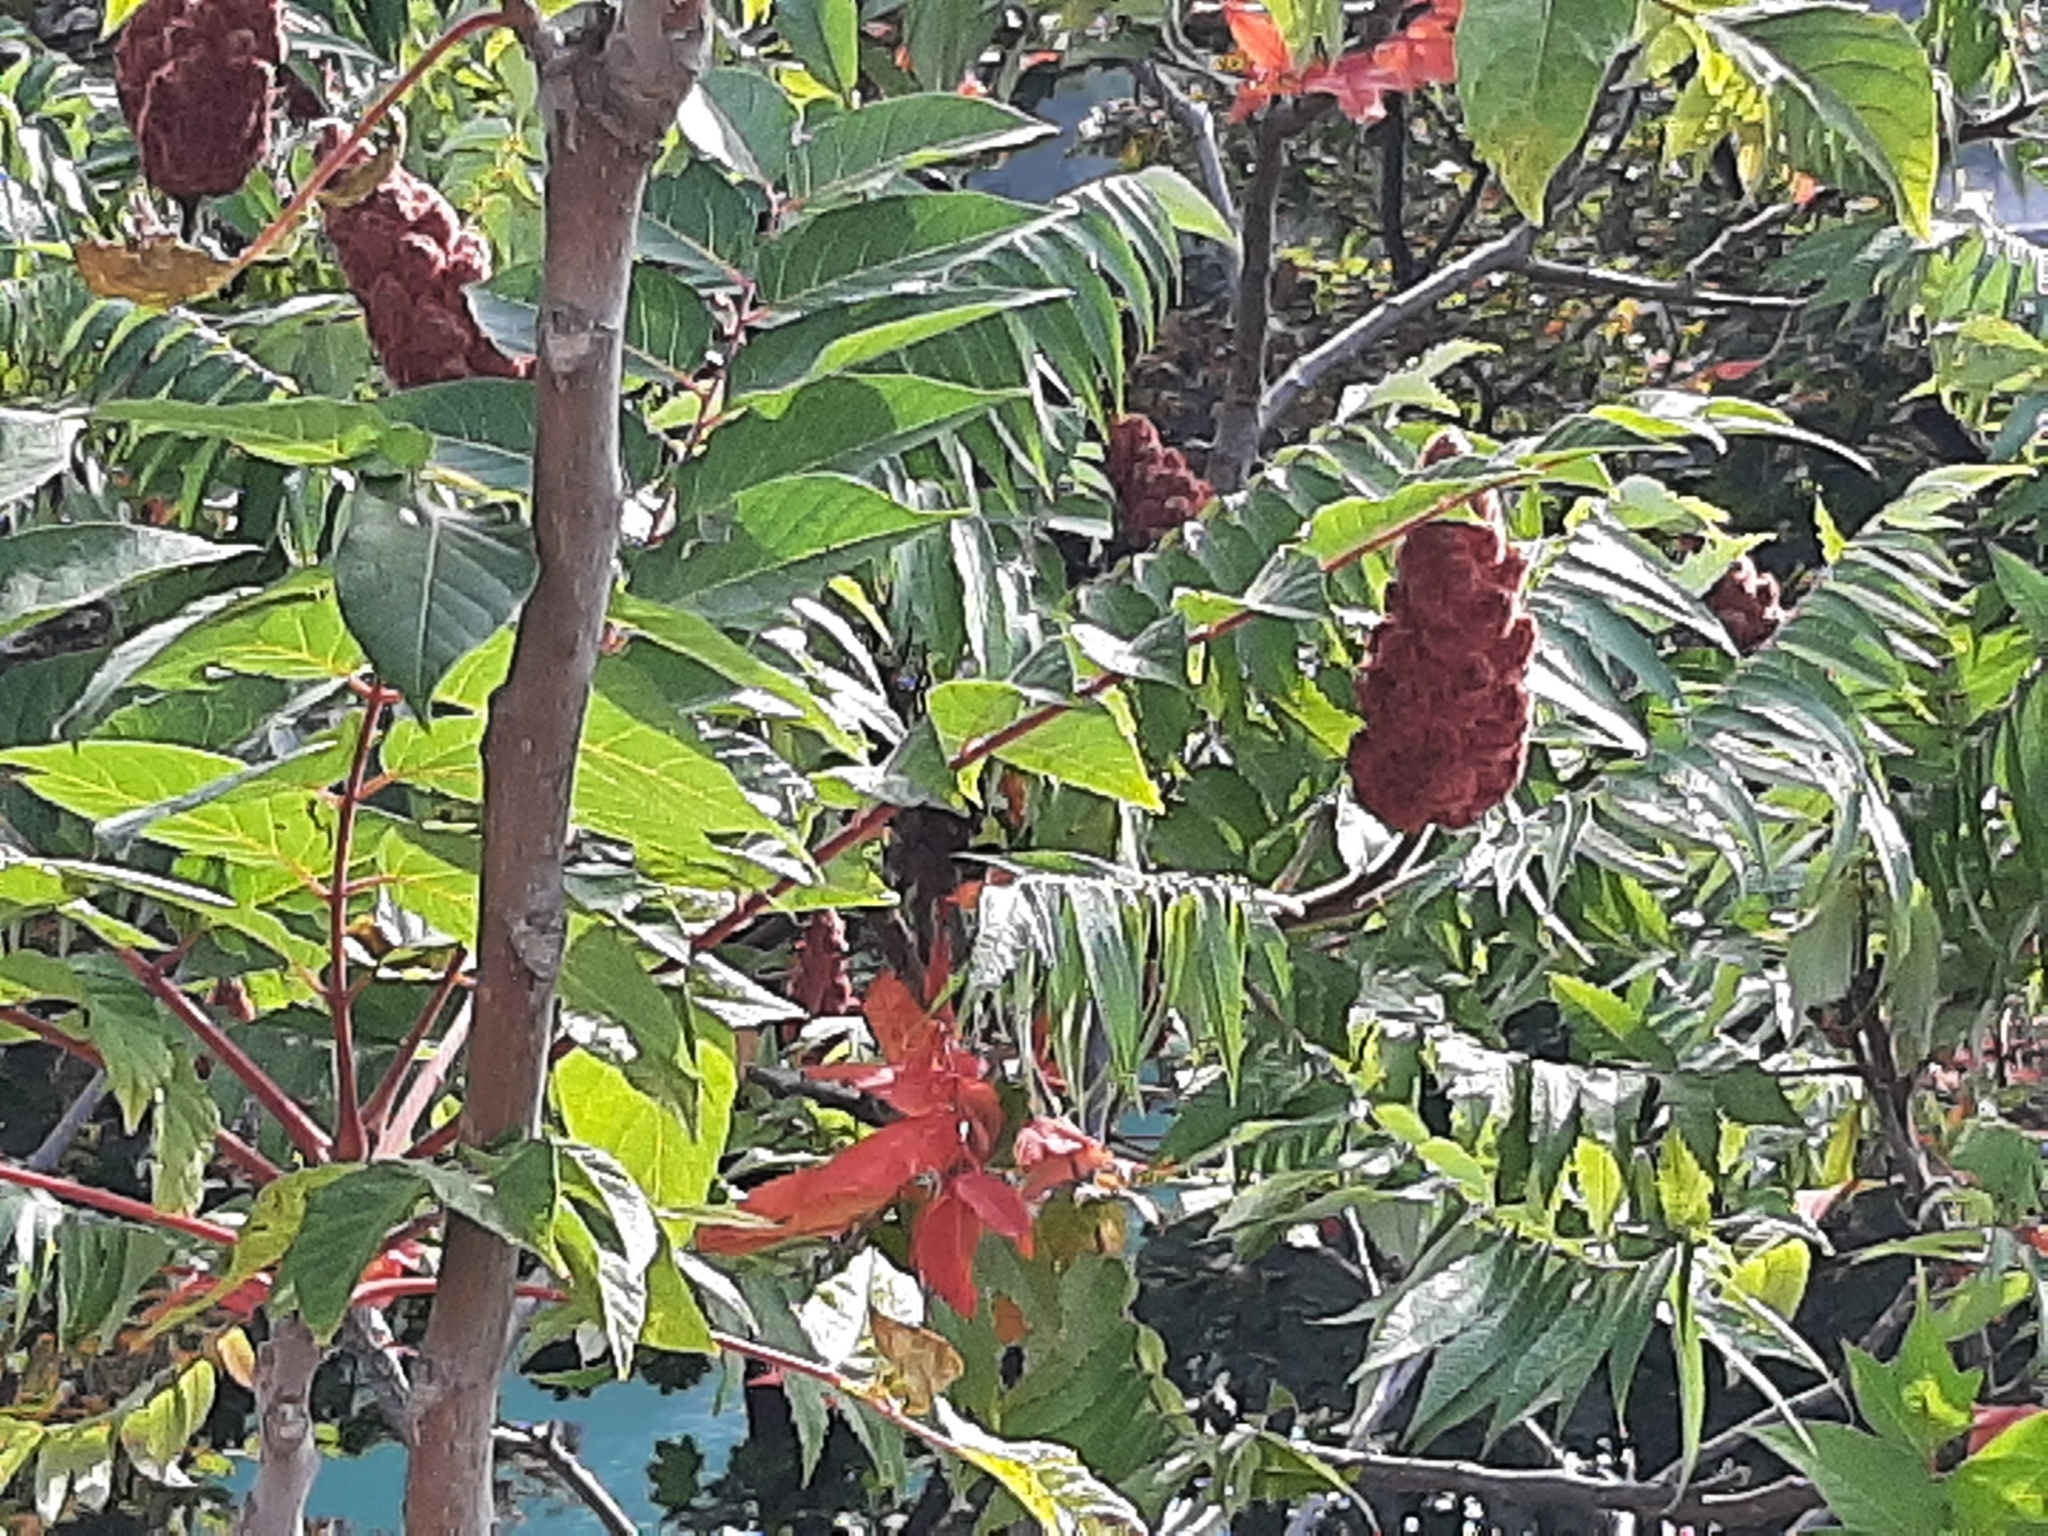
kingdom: Plantae
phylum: Tracheophyta
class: Magnoliopsida
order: Sapindales
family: Anacardiaceae
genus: Rhus
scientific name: Rhus typhina
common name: Staghorn sumac
